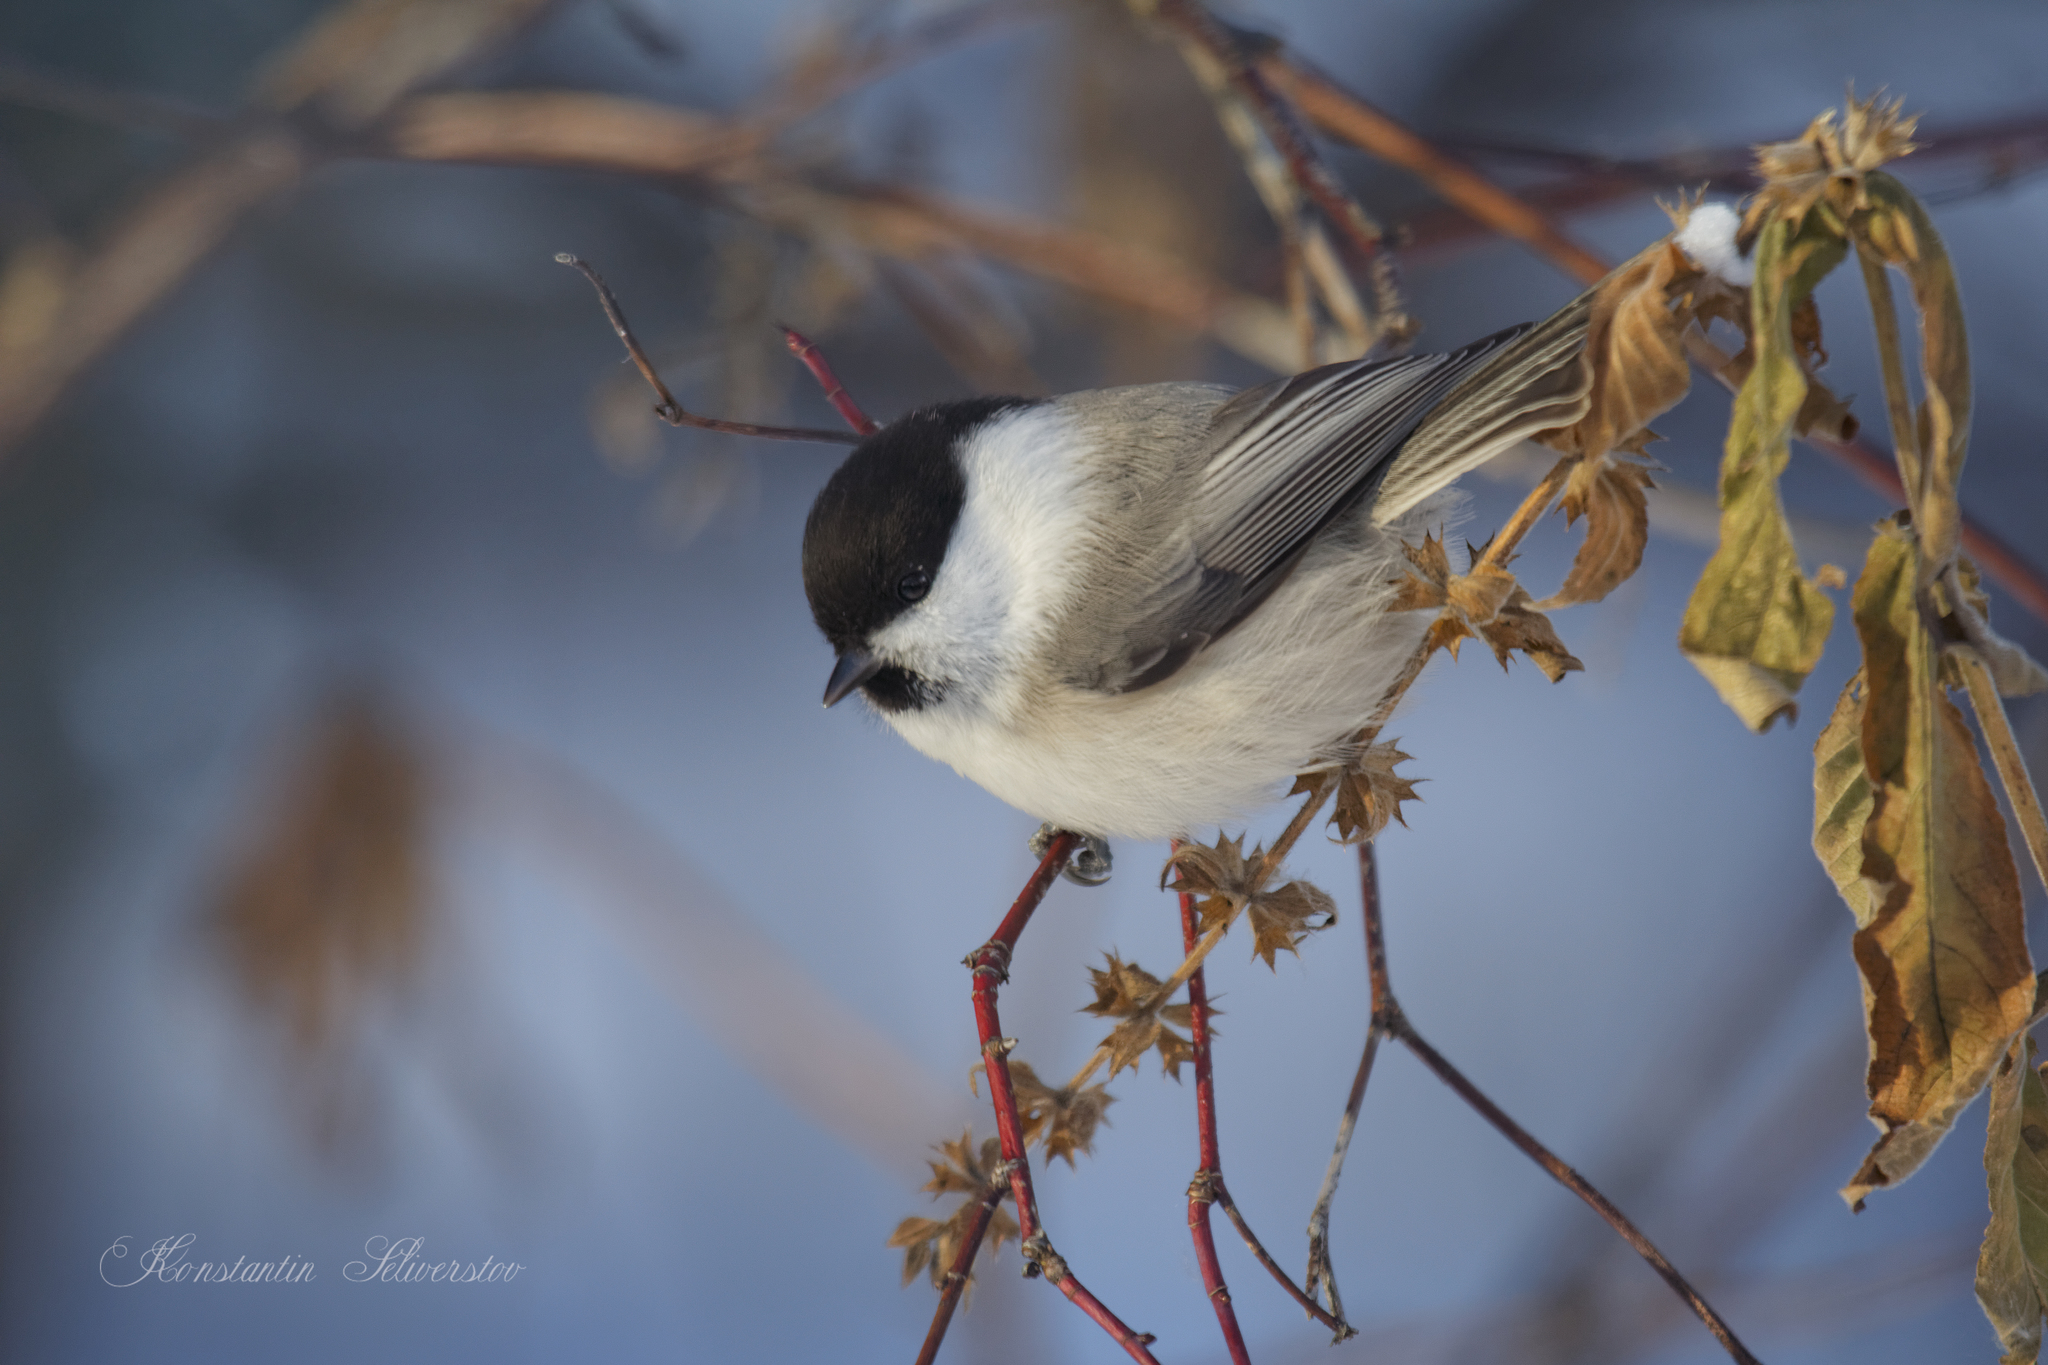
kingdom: Animalia
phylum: Chordata
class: Aves
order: Passeriformes
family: Paridae
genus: Poecile
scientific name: Poecile montanus
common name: Willow tit
